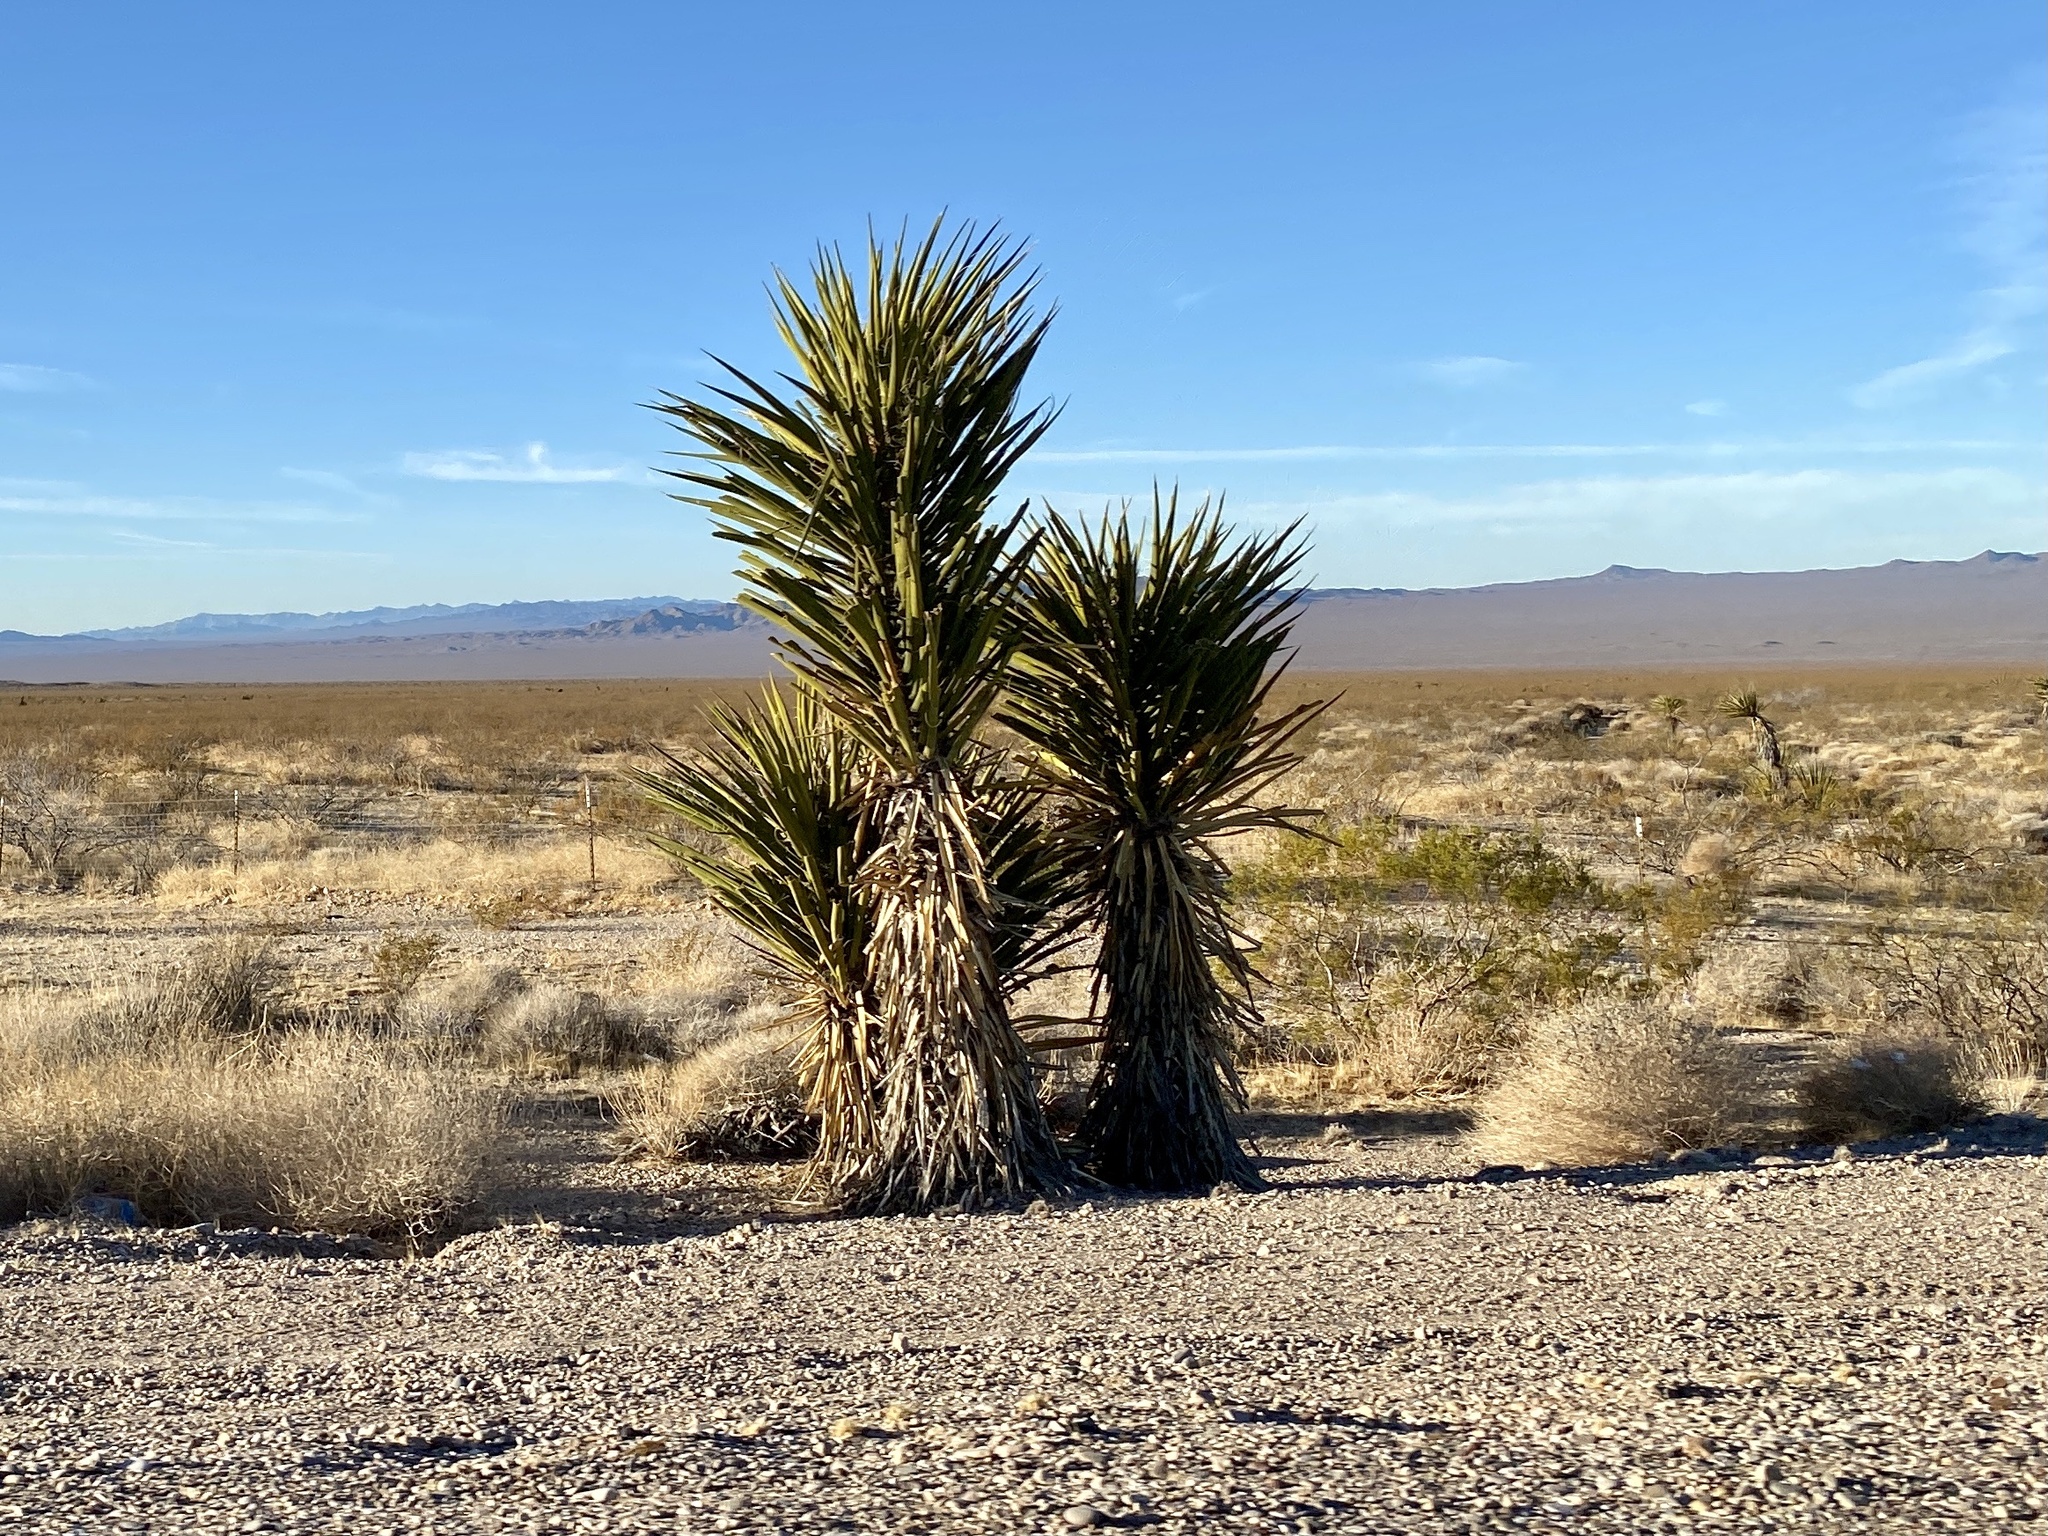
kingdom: Plantae
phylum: Tracheophyta
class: Liliopsida
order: Asparagales
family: Asparagaceae
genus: Yucca
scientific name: Yucca schidigera
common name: Mojave yucca
